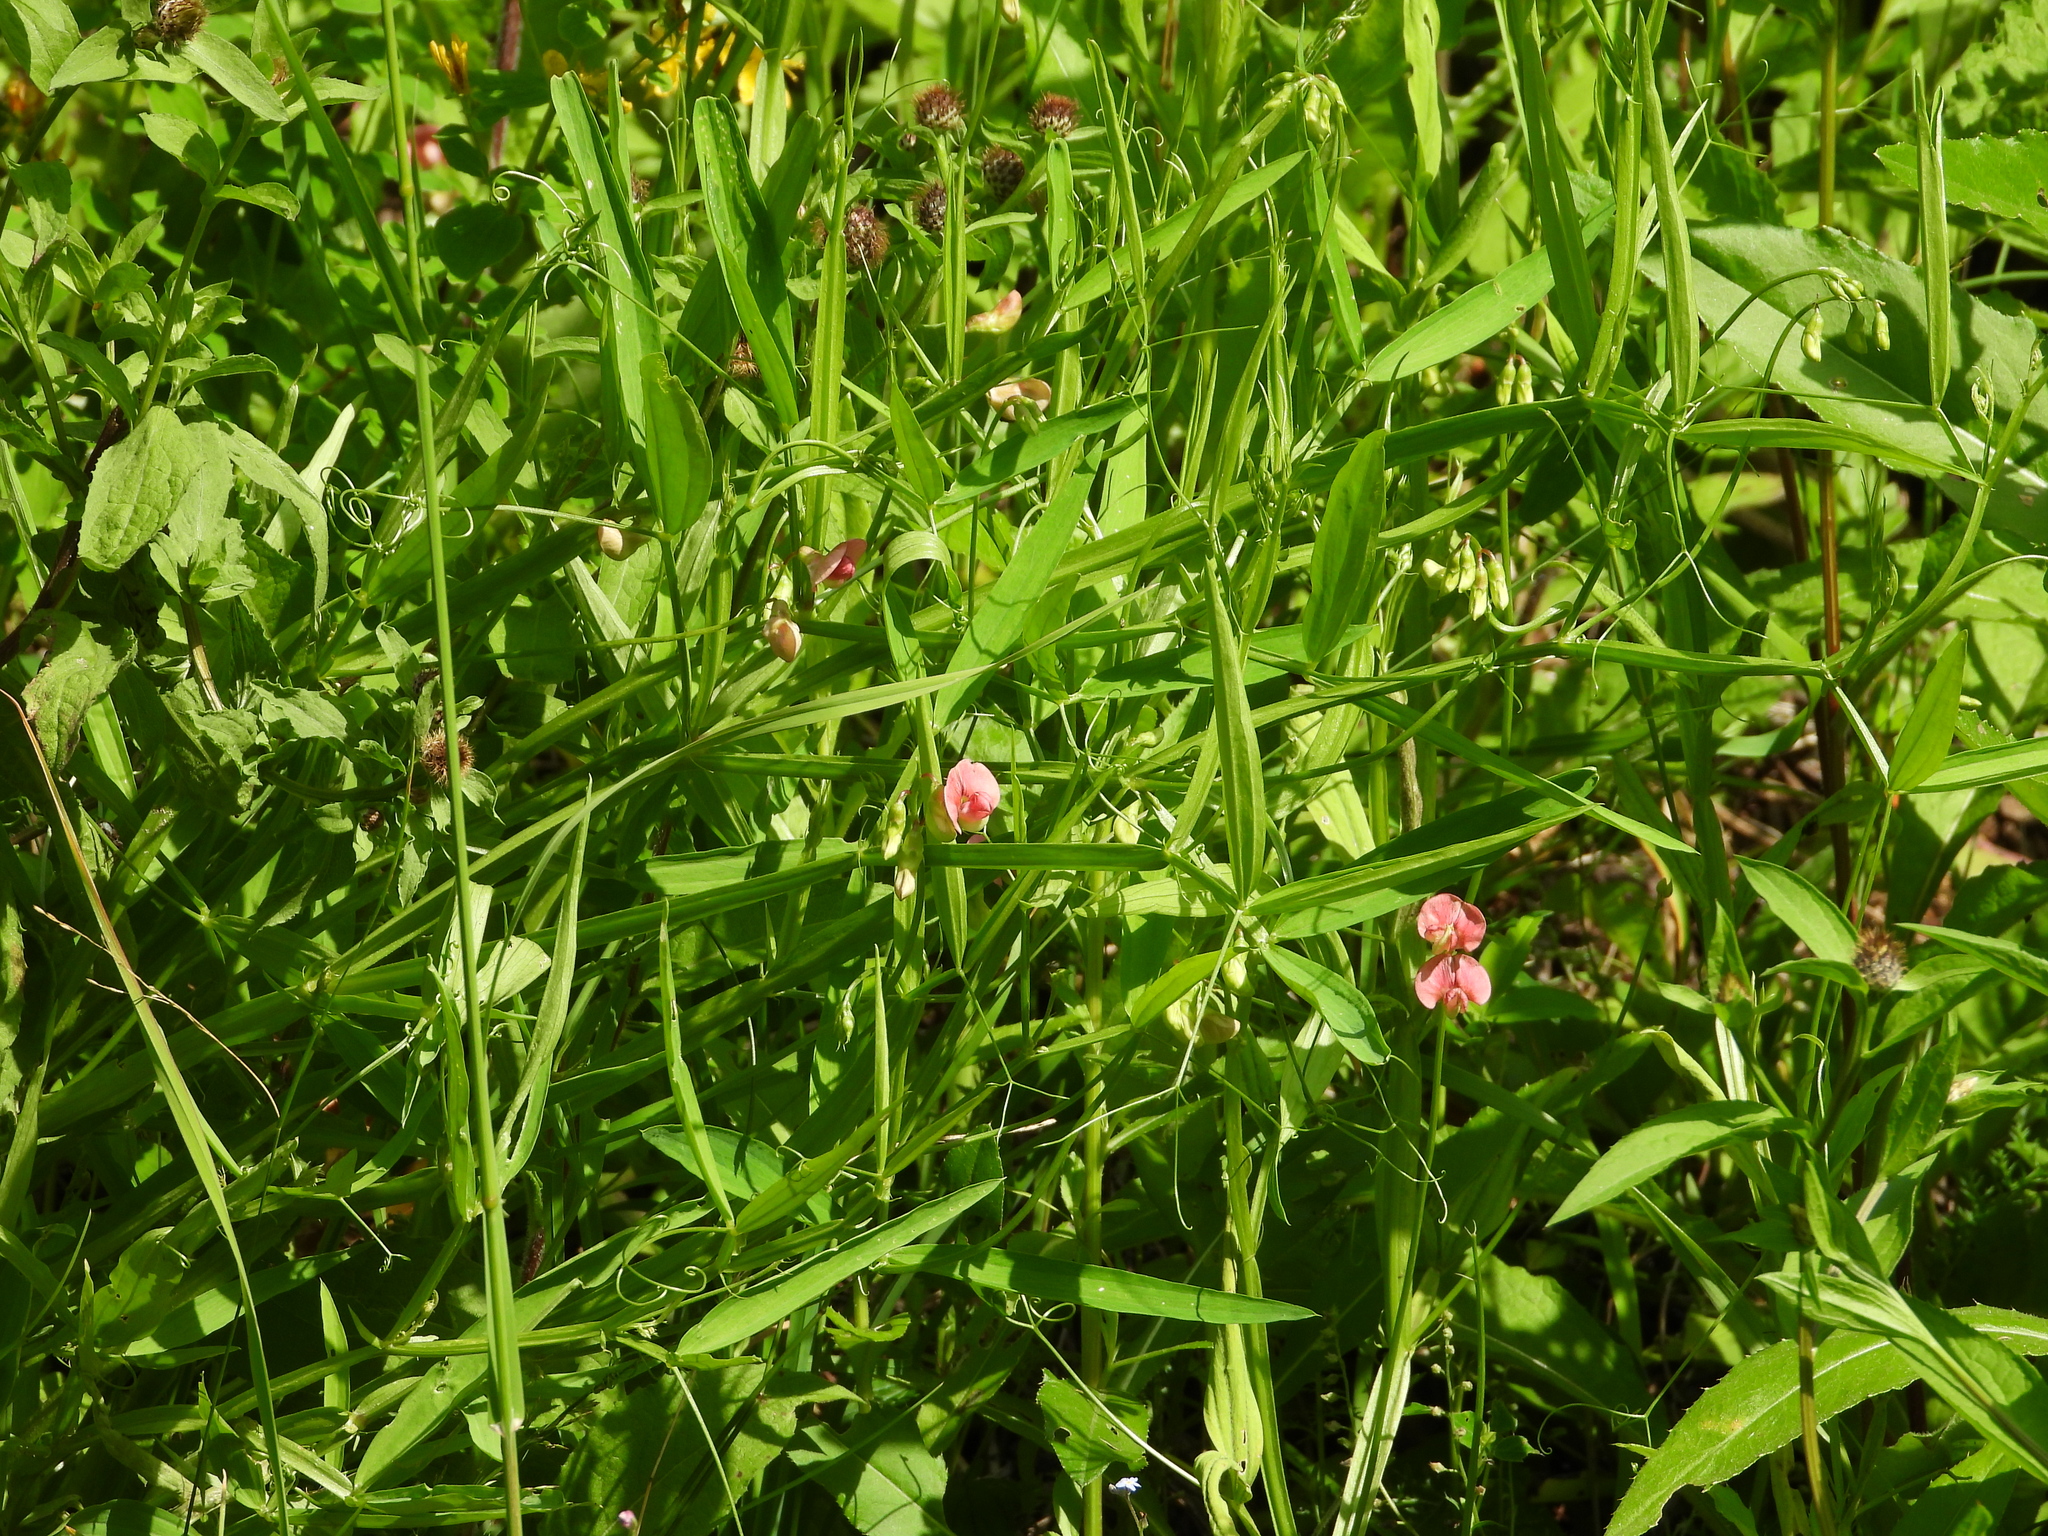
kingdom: Plantae
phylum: Tracheophyta
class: Magnoliopsida
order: Fabales
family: Fabaceae
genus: Lathyrus
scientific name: Lathyrus sylvestris
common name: Flat pea
